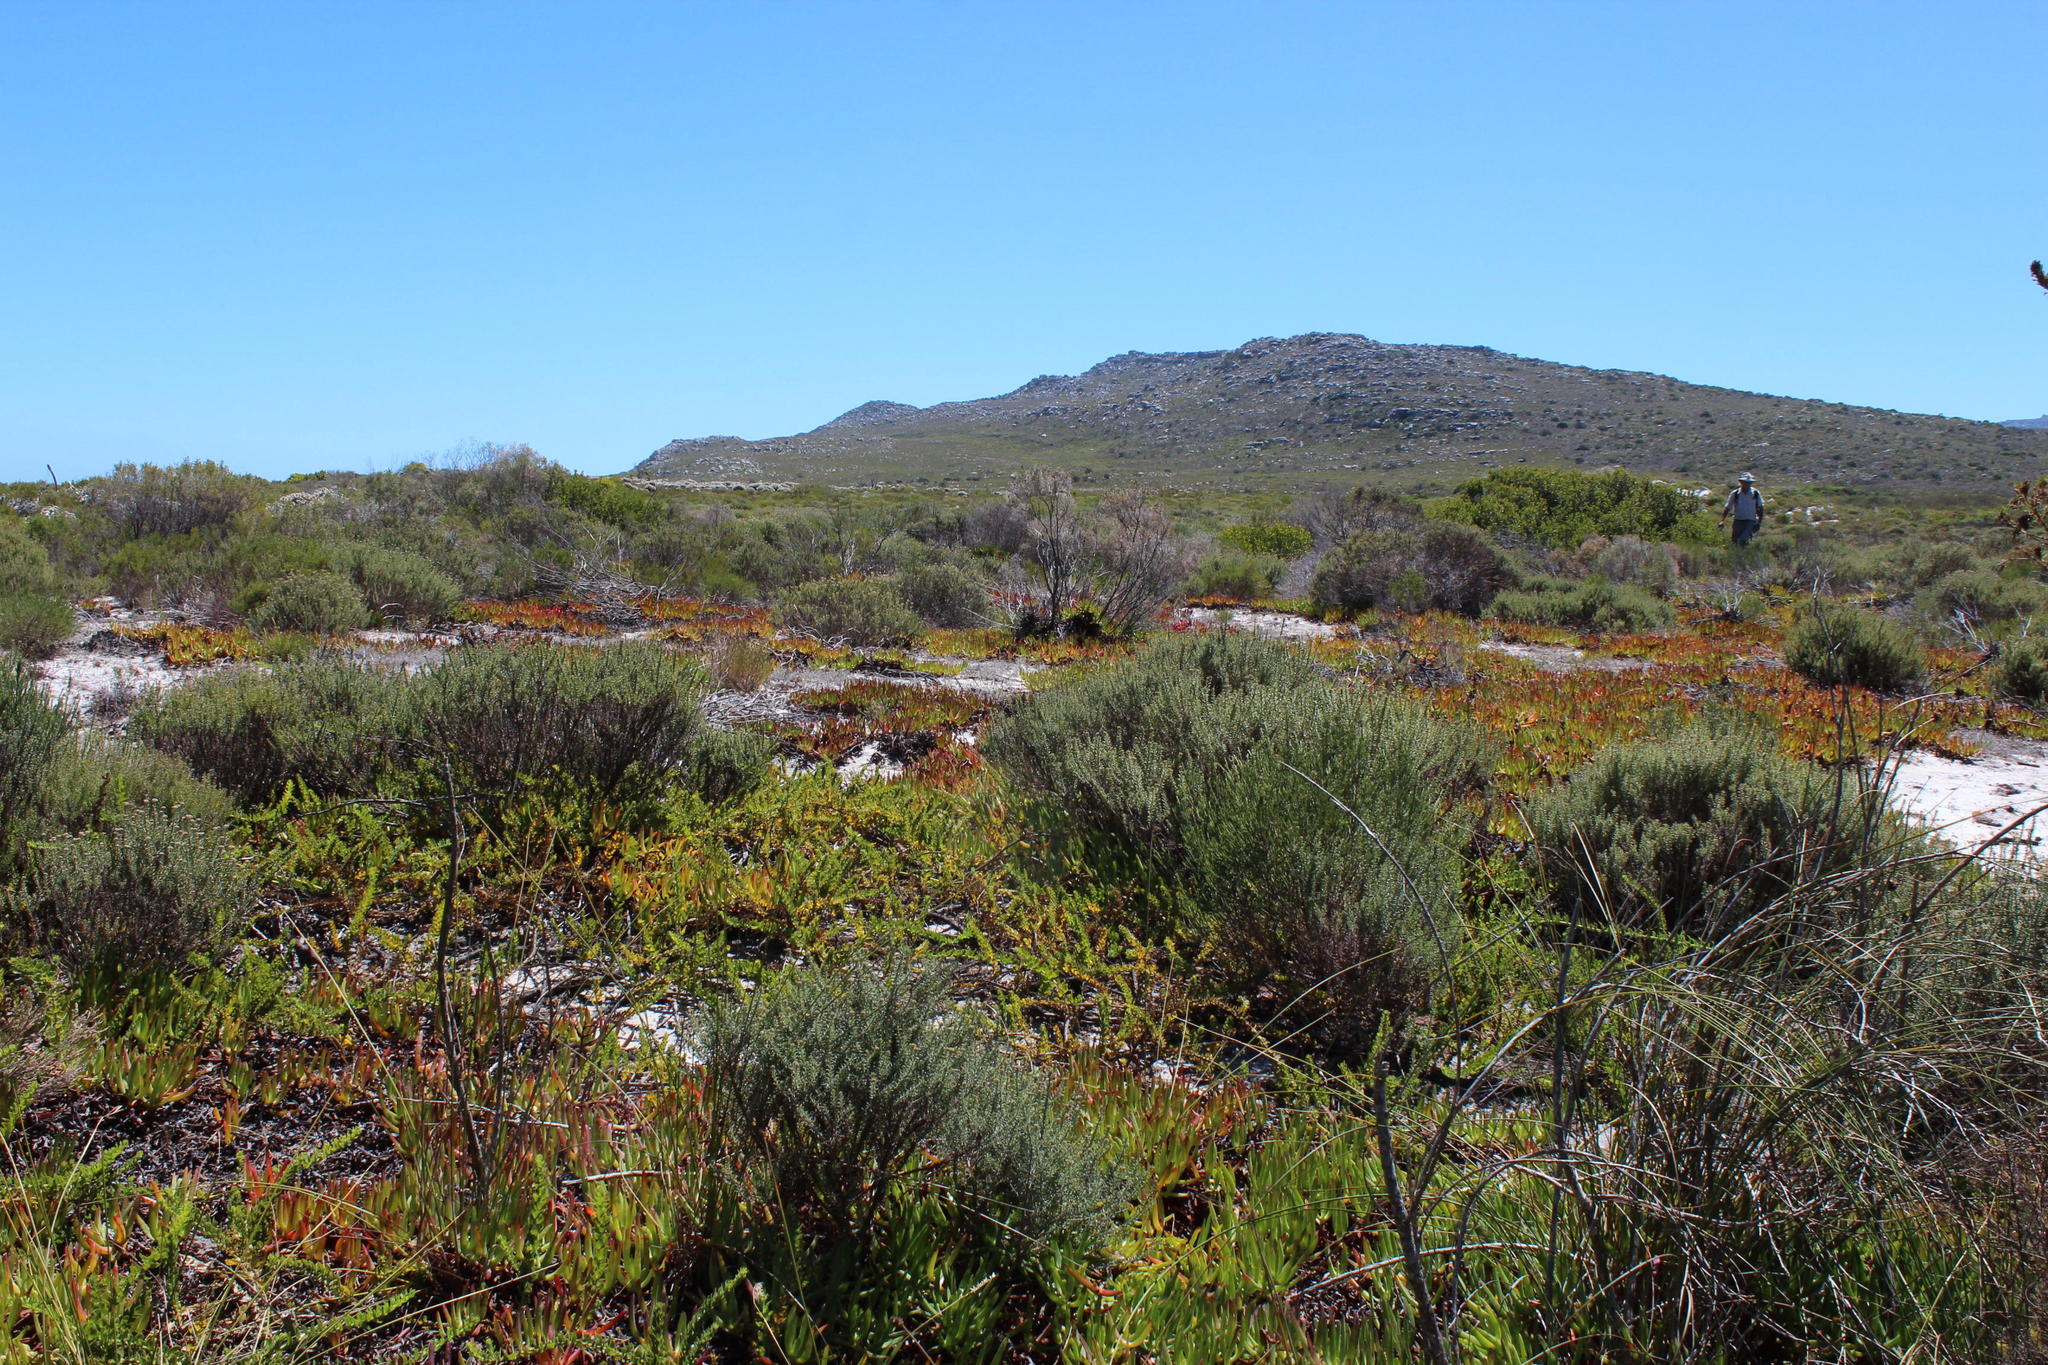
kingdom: Plantae
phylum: Tracheophyta
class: Magnoliopsida
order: Caryophyllales
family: Aizoaceae
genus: Carpobrotus
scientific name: Carpobrotus edulis
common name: Hottentot-fig
